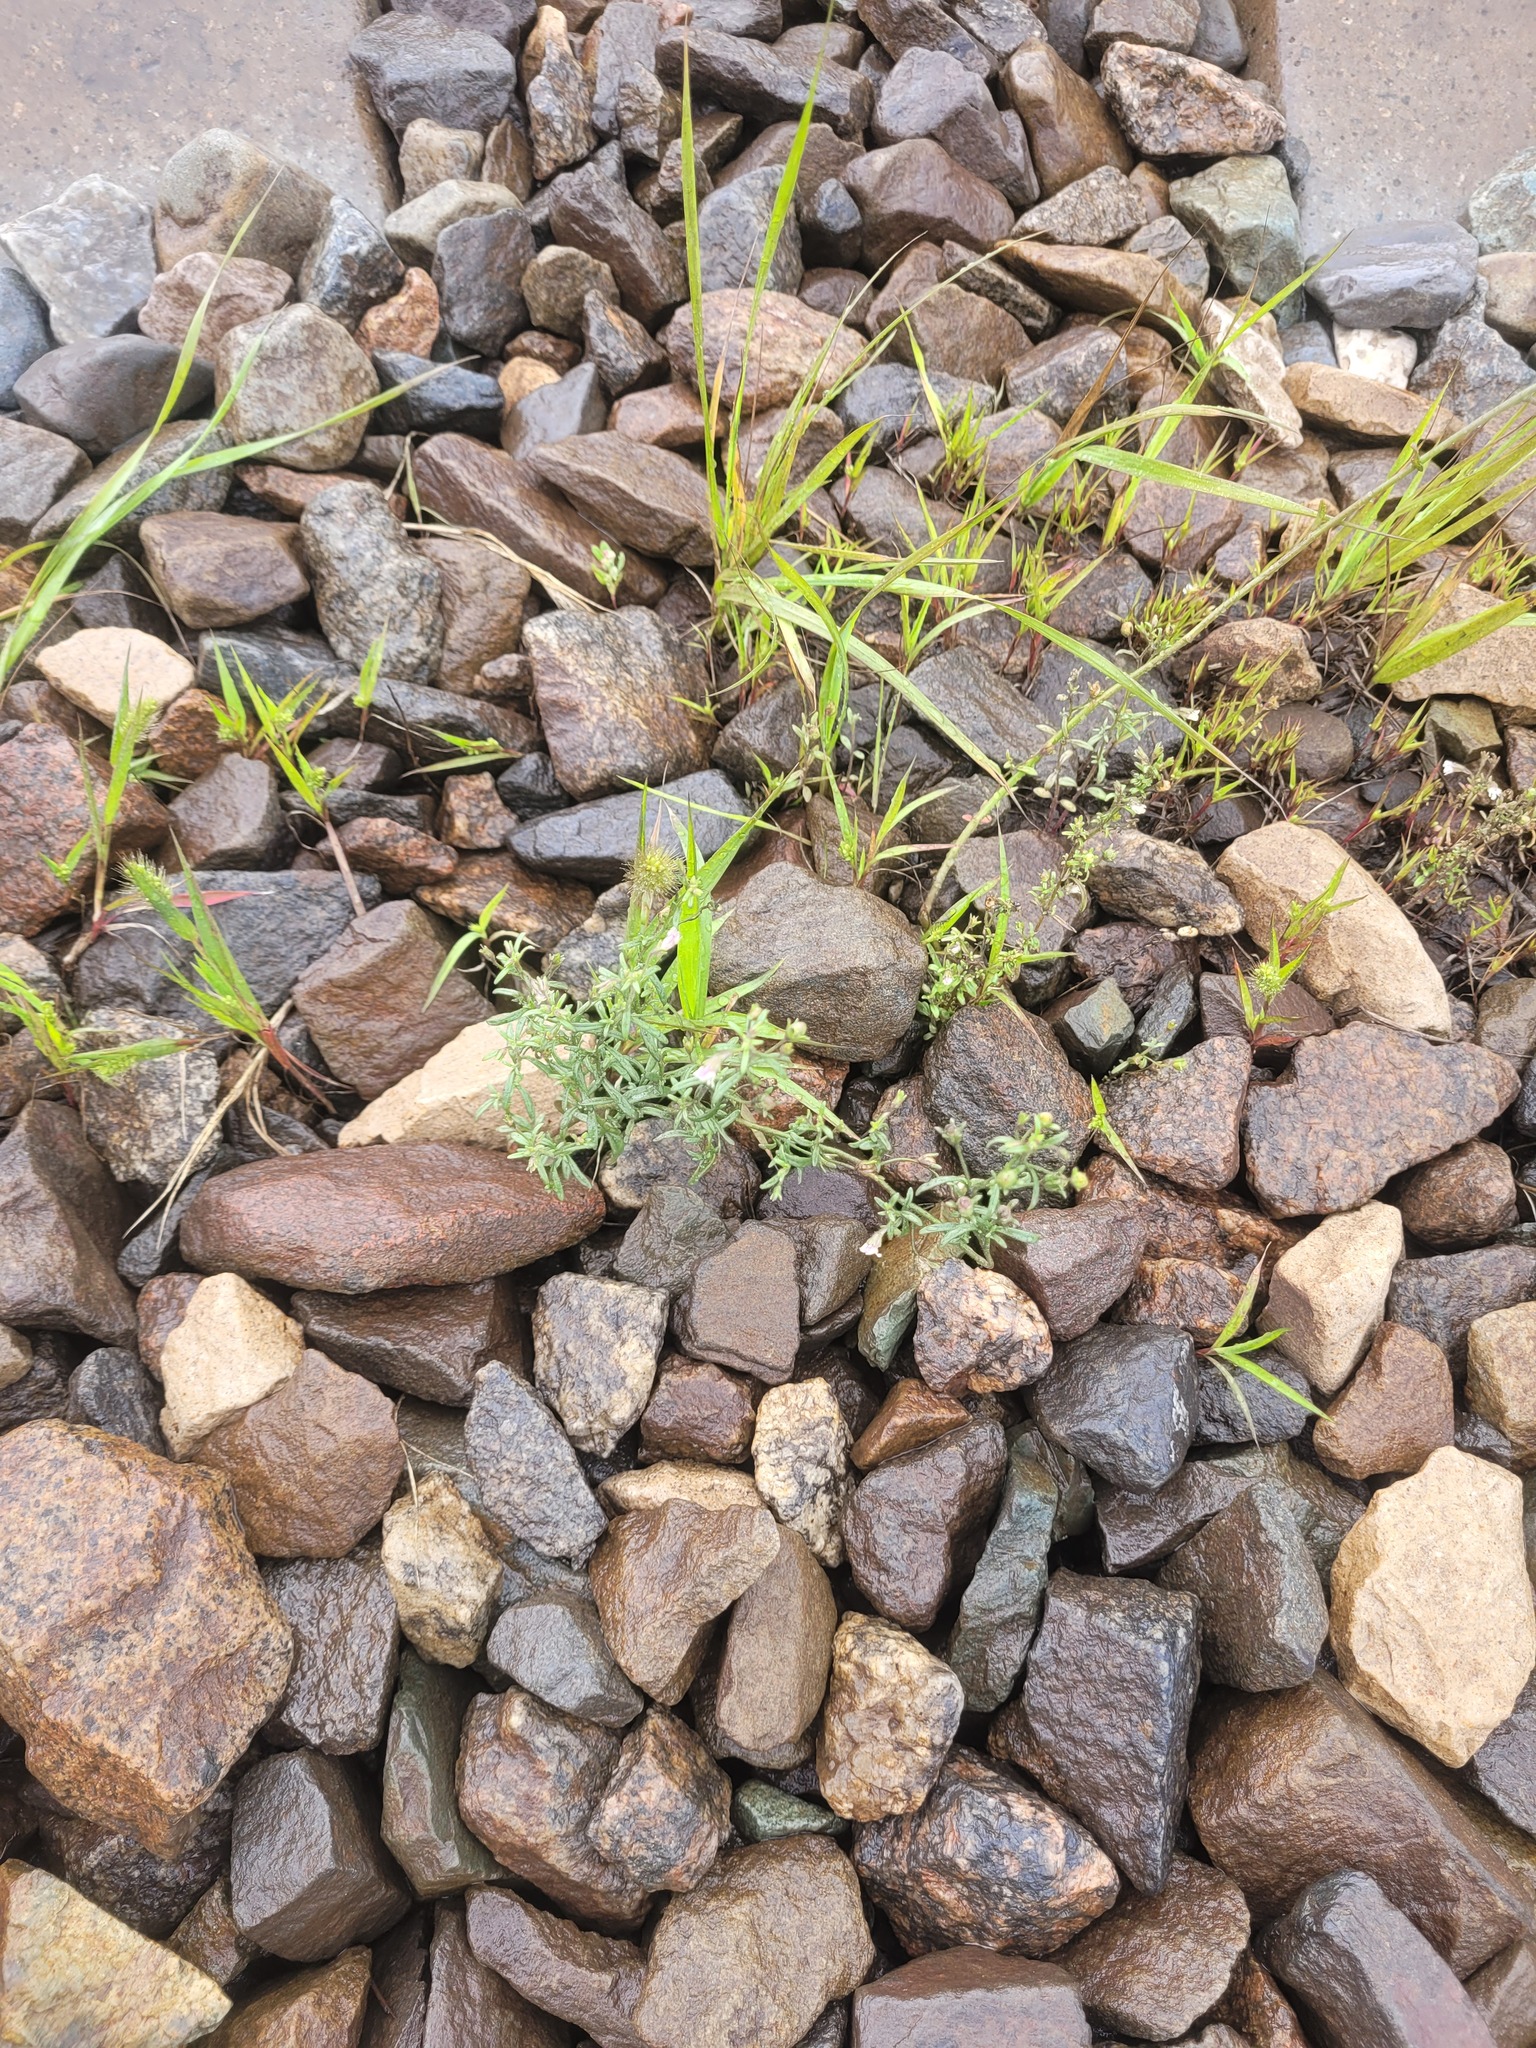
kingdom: Plantae
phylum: Tracheophyta
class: Magnoliopsida
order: Lamiales
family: Plantaginaceae
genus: Chaenorhinum
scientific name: Chaenorhinum minus
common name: Dwarf snapdragon
